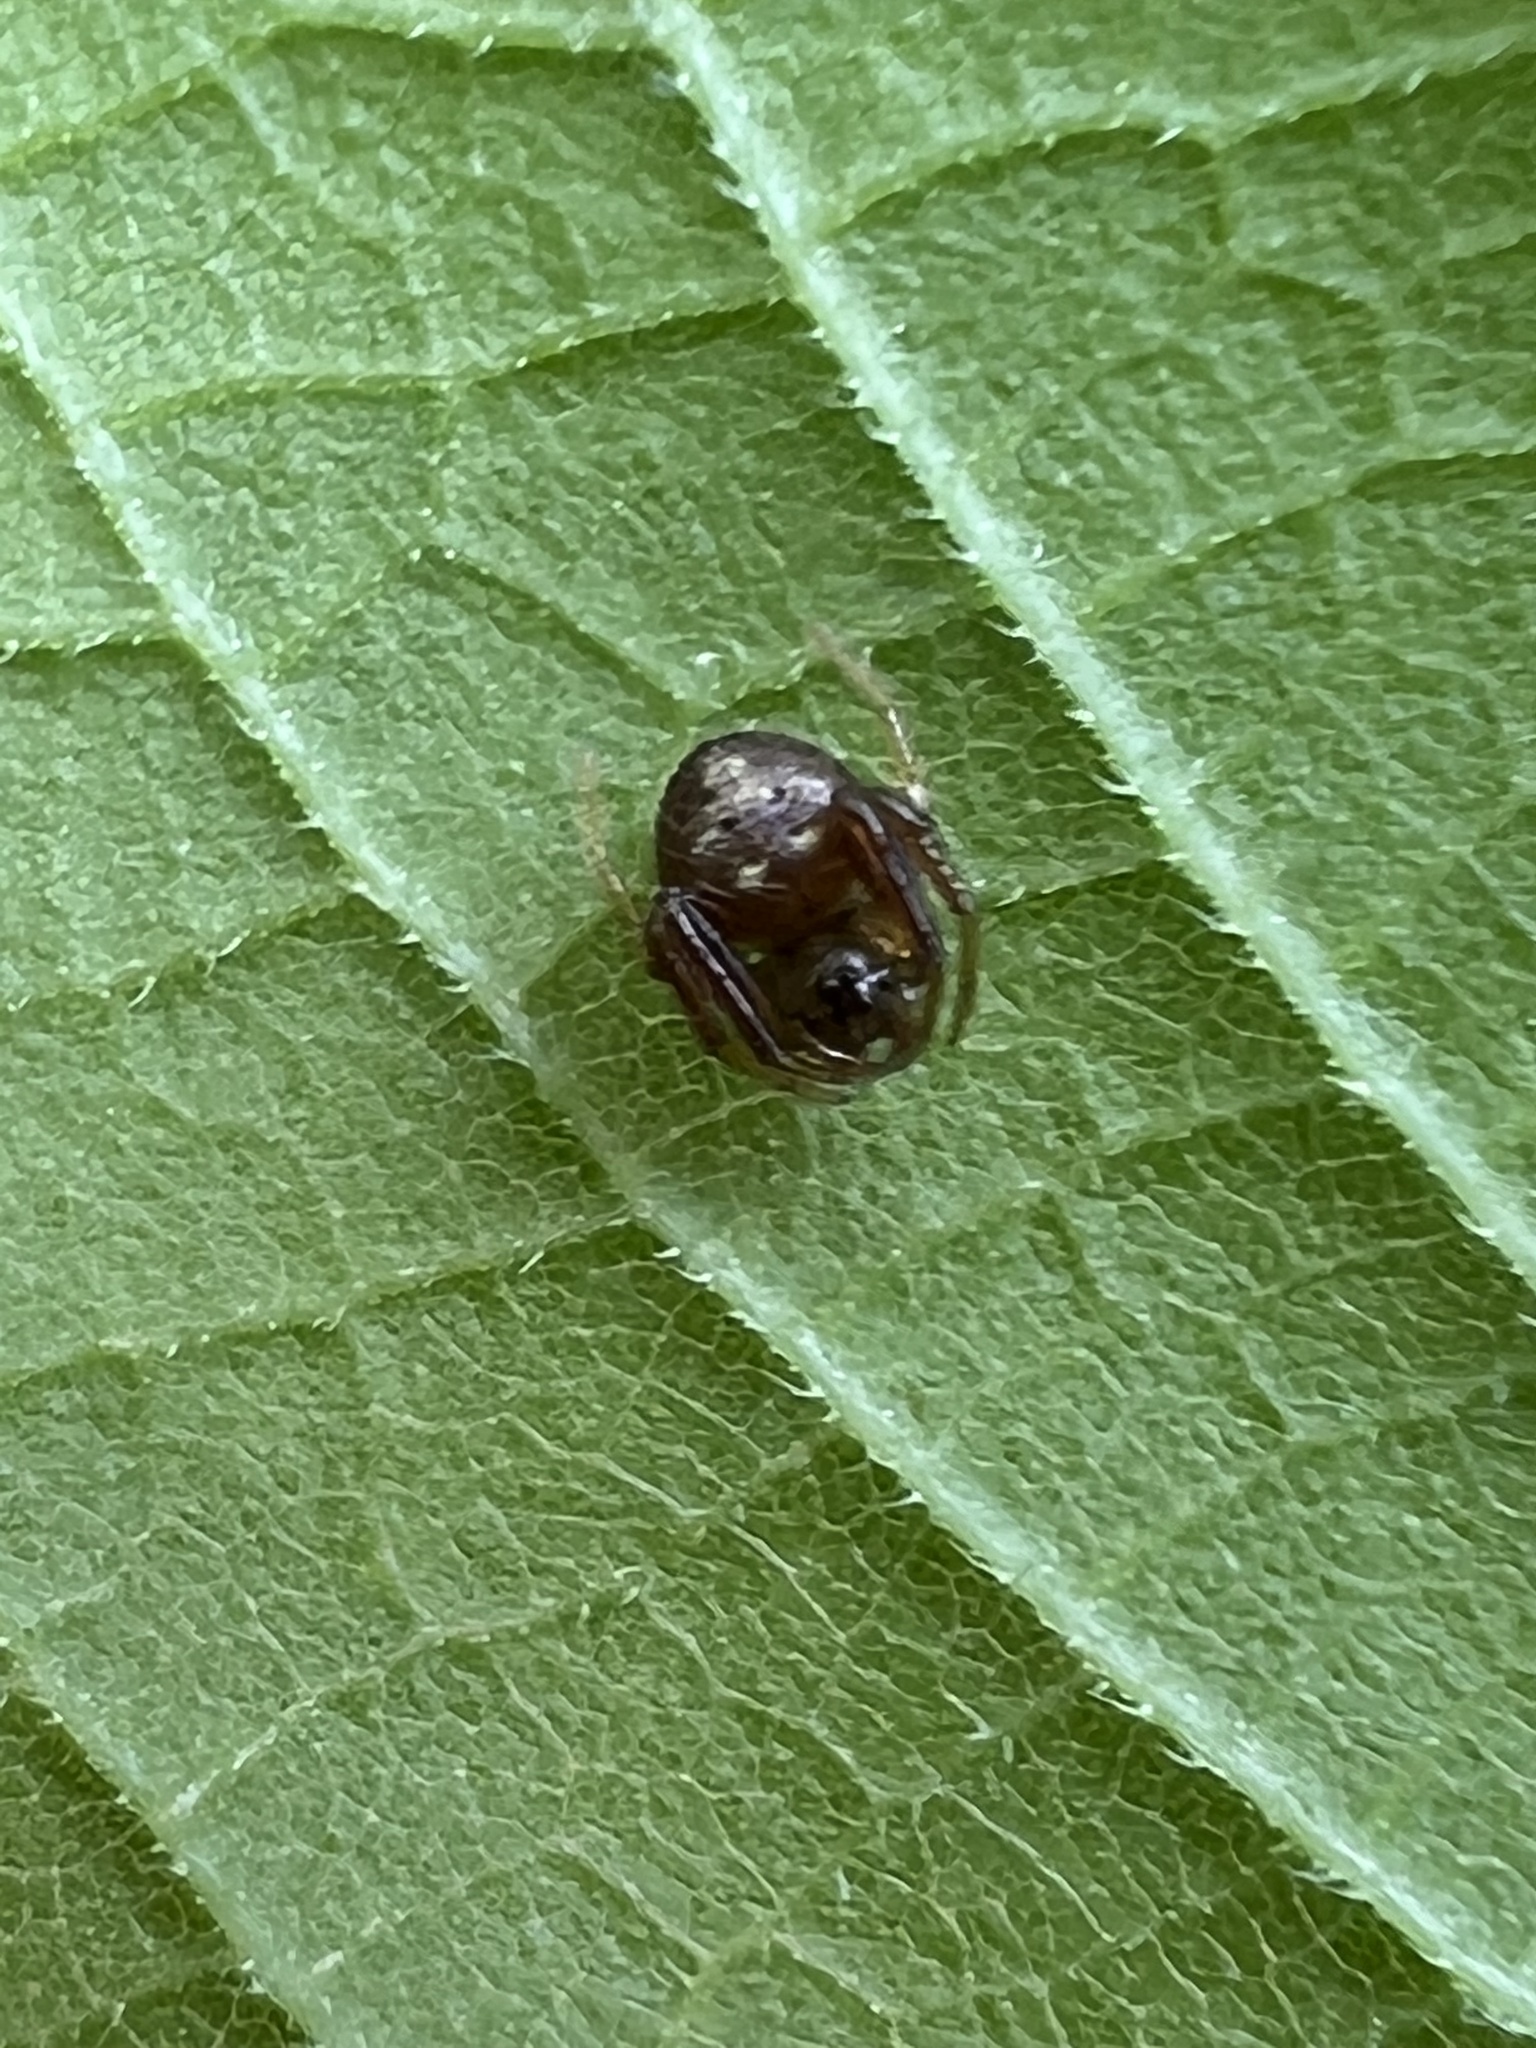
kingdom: Animalia
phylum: Arthropoda
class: Arachnida
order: Araneae
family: Araneidae
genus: Verrucosa
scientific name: Verrucosa arenata
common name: Orb weavers
